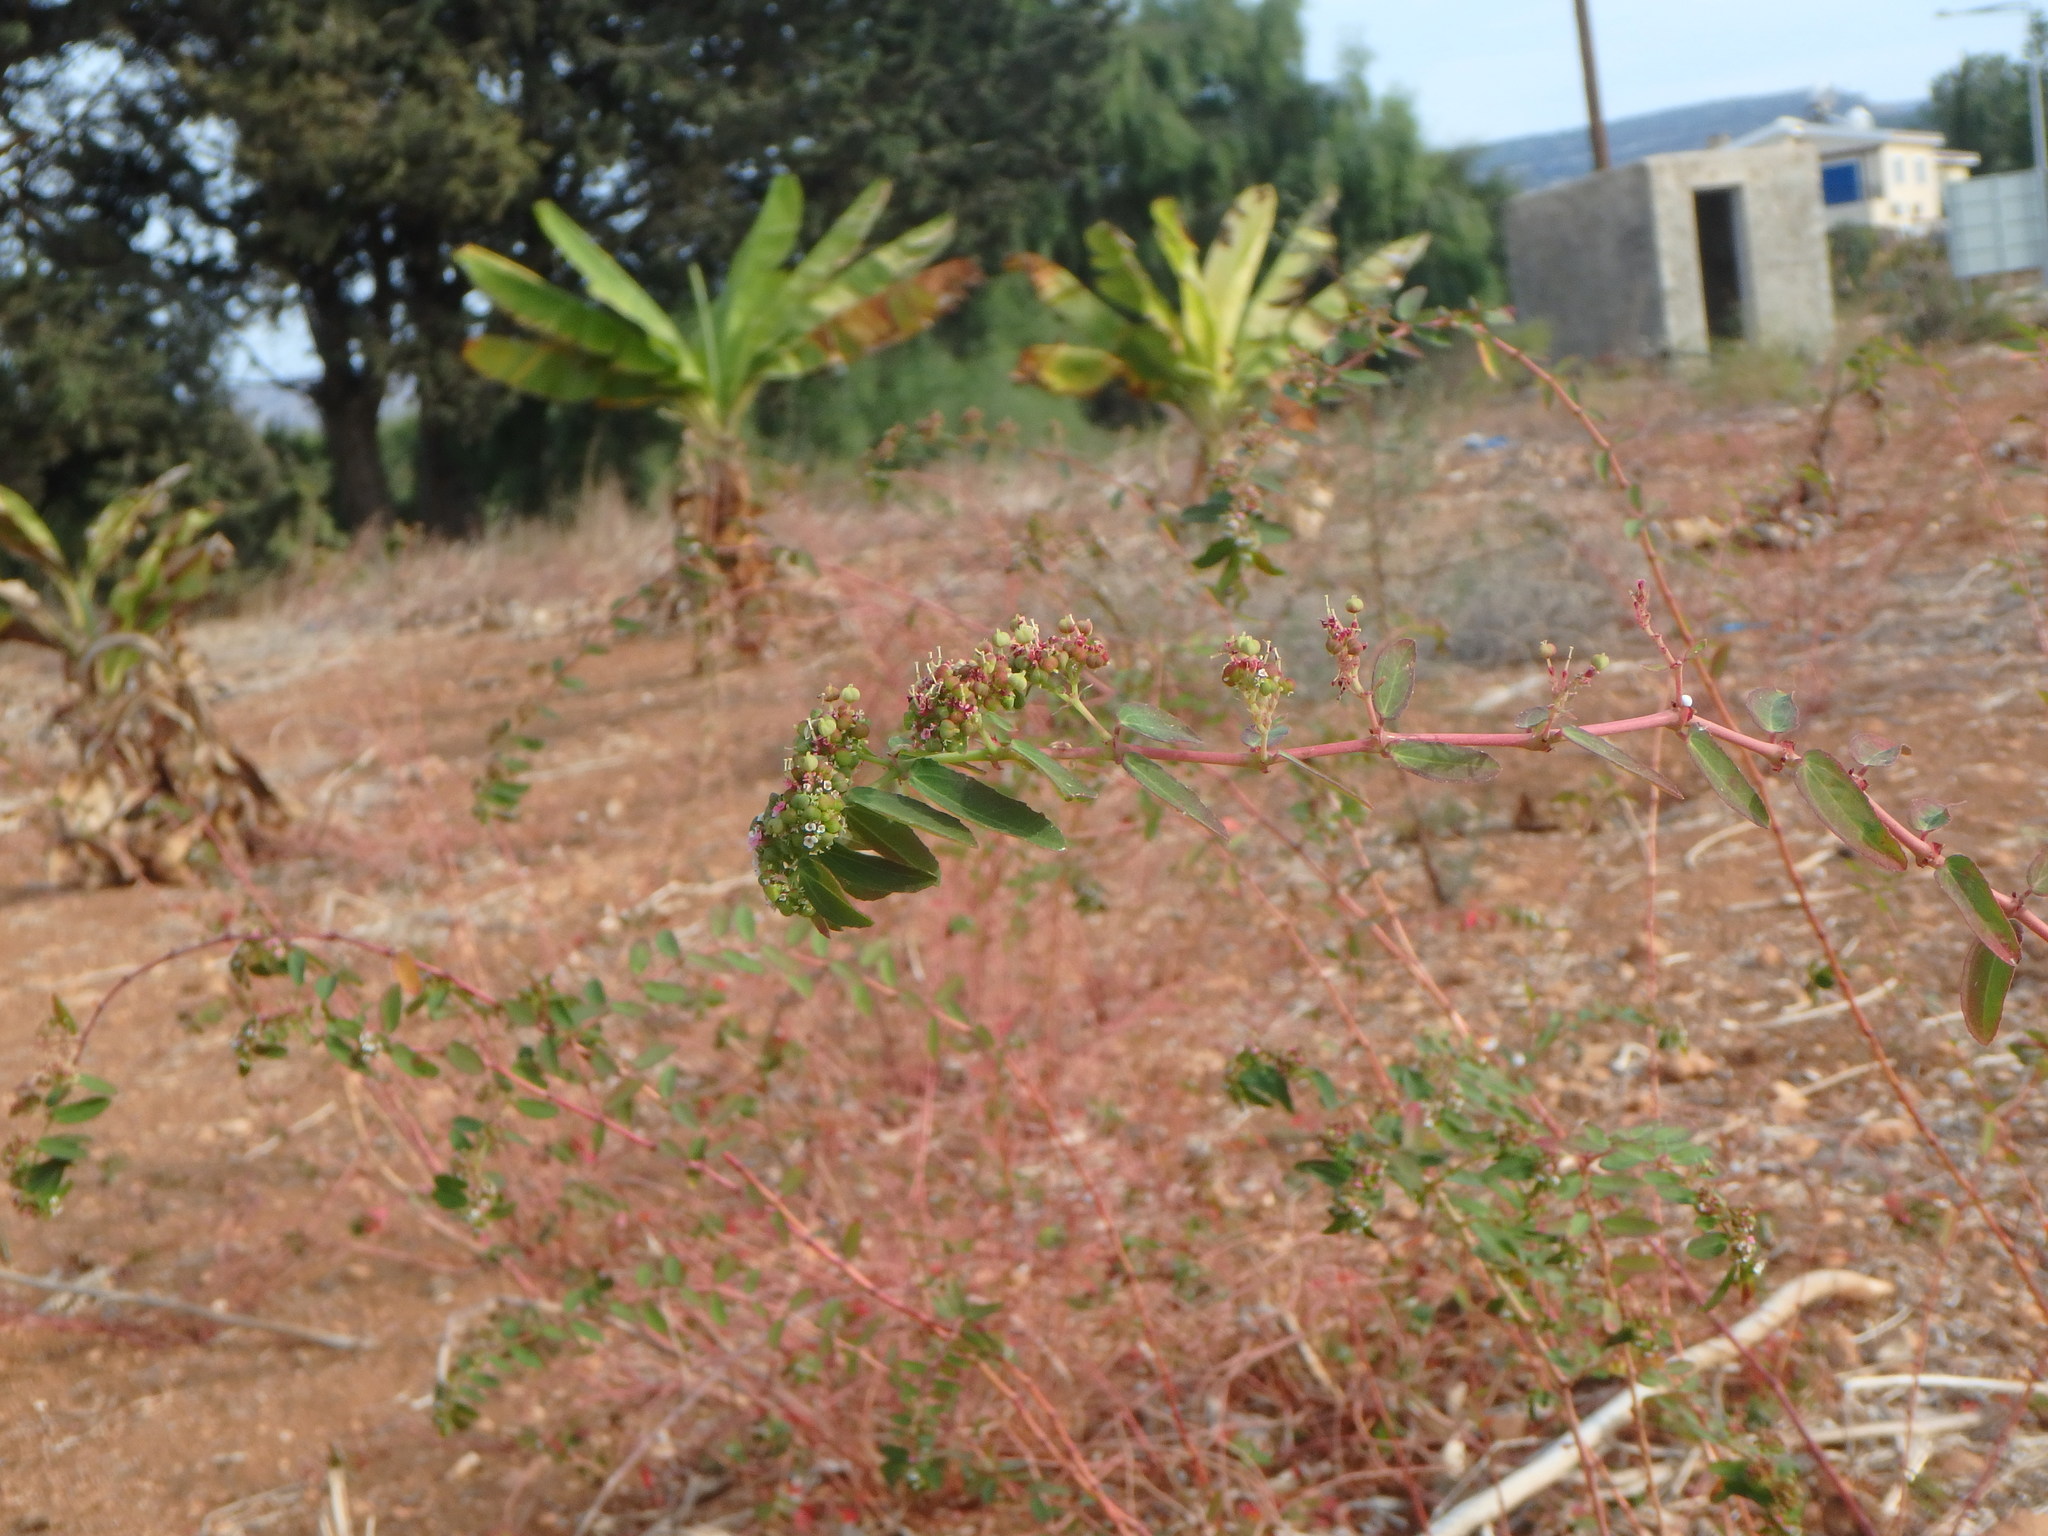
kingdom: Plantae
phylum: Tracheophyta
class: Magnoliopsida
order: Malpighiales
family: Euphorbiaceae
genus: Euphorbia
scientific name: Euphorbia hypericifolia
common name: Graceful sandmat
